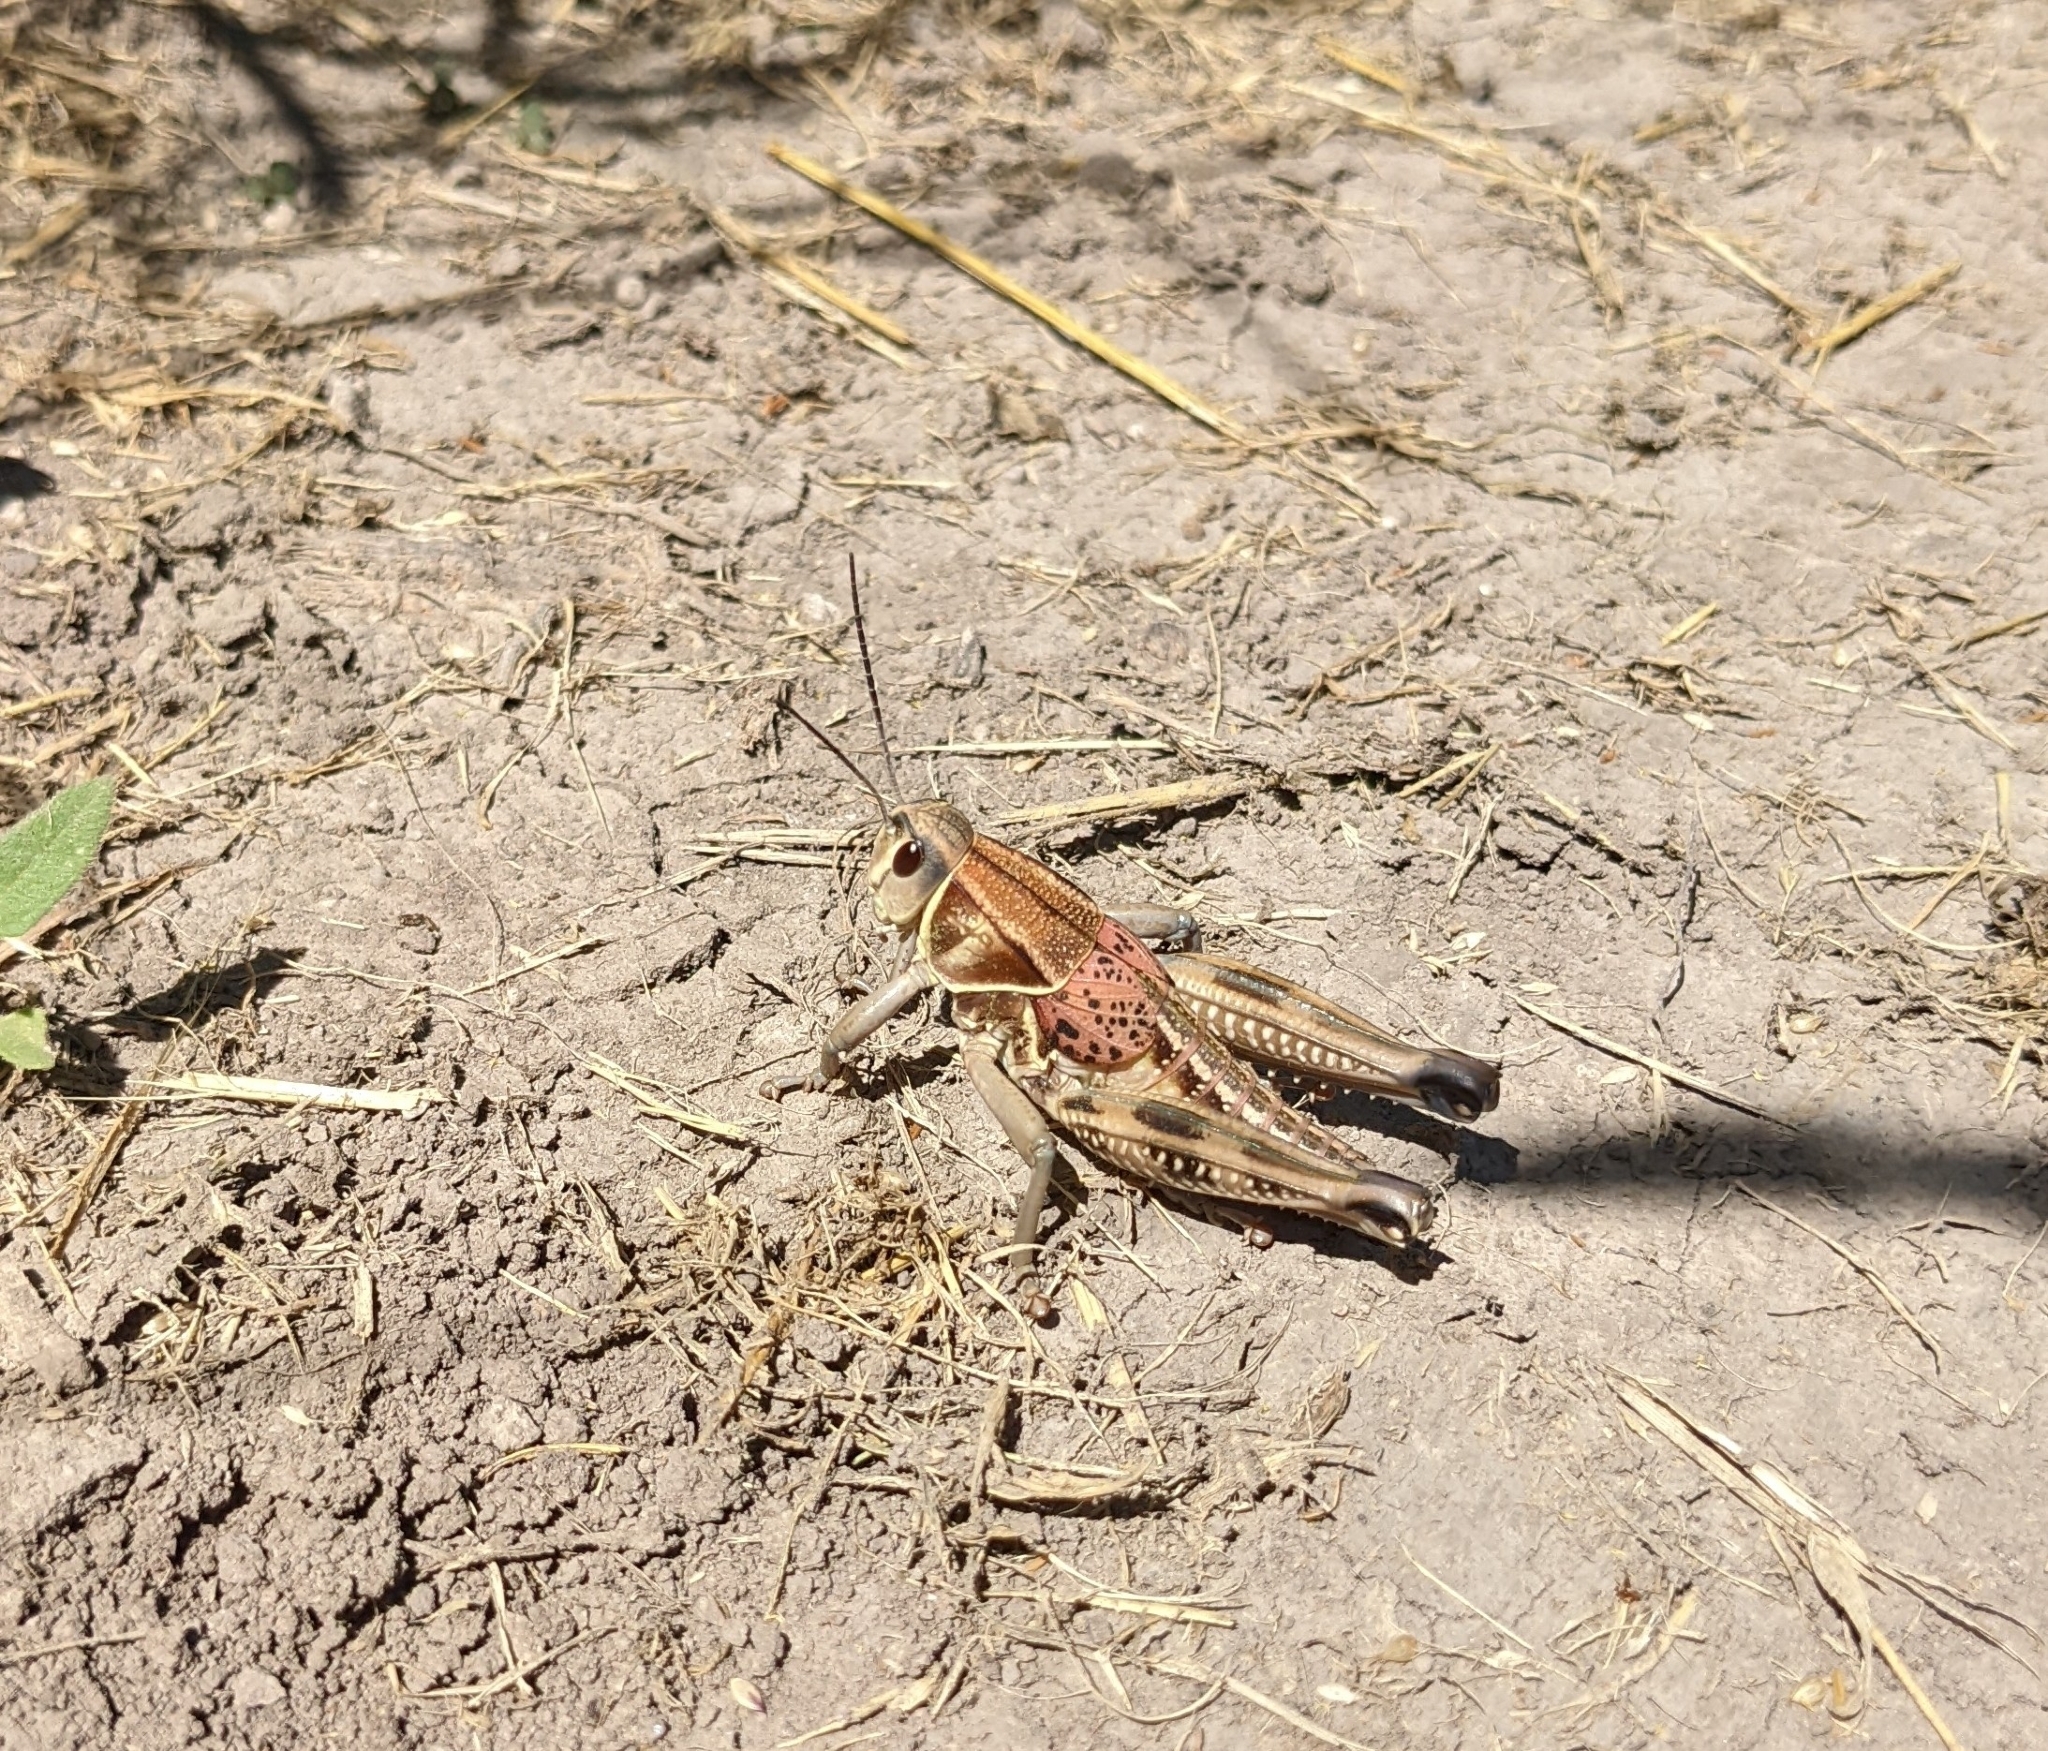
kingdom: Animalia
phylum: Arthropoda
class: Insecta
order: Orthoptera
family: Romaleidae
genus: Brachystola
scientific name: Brachystola magna
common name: Plains lubber grasshopper
